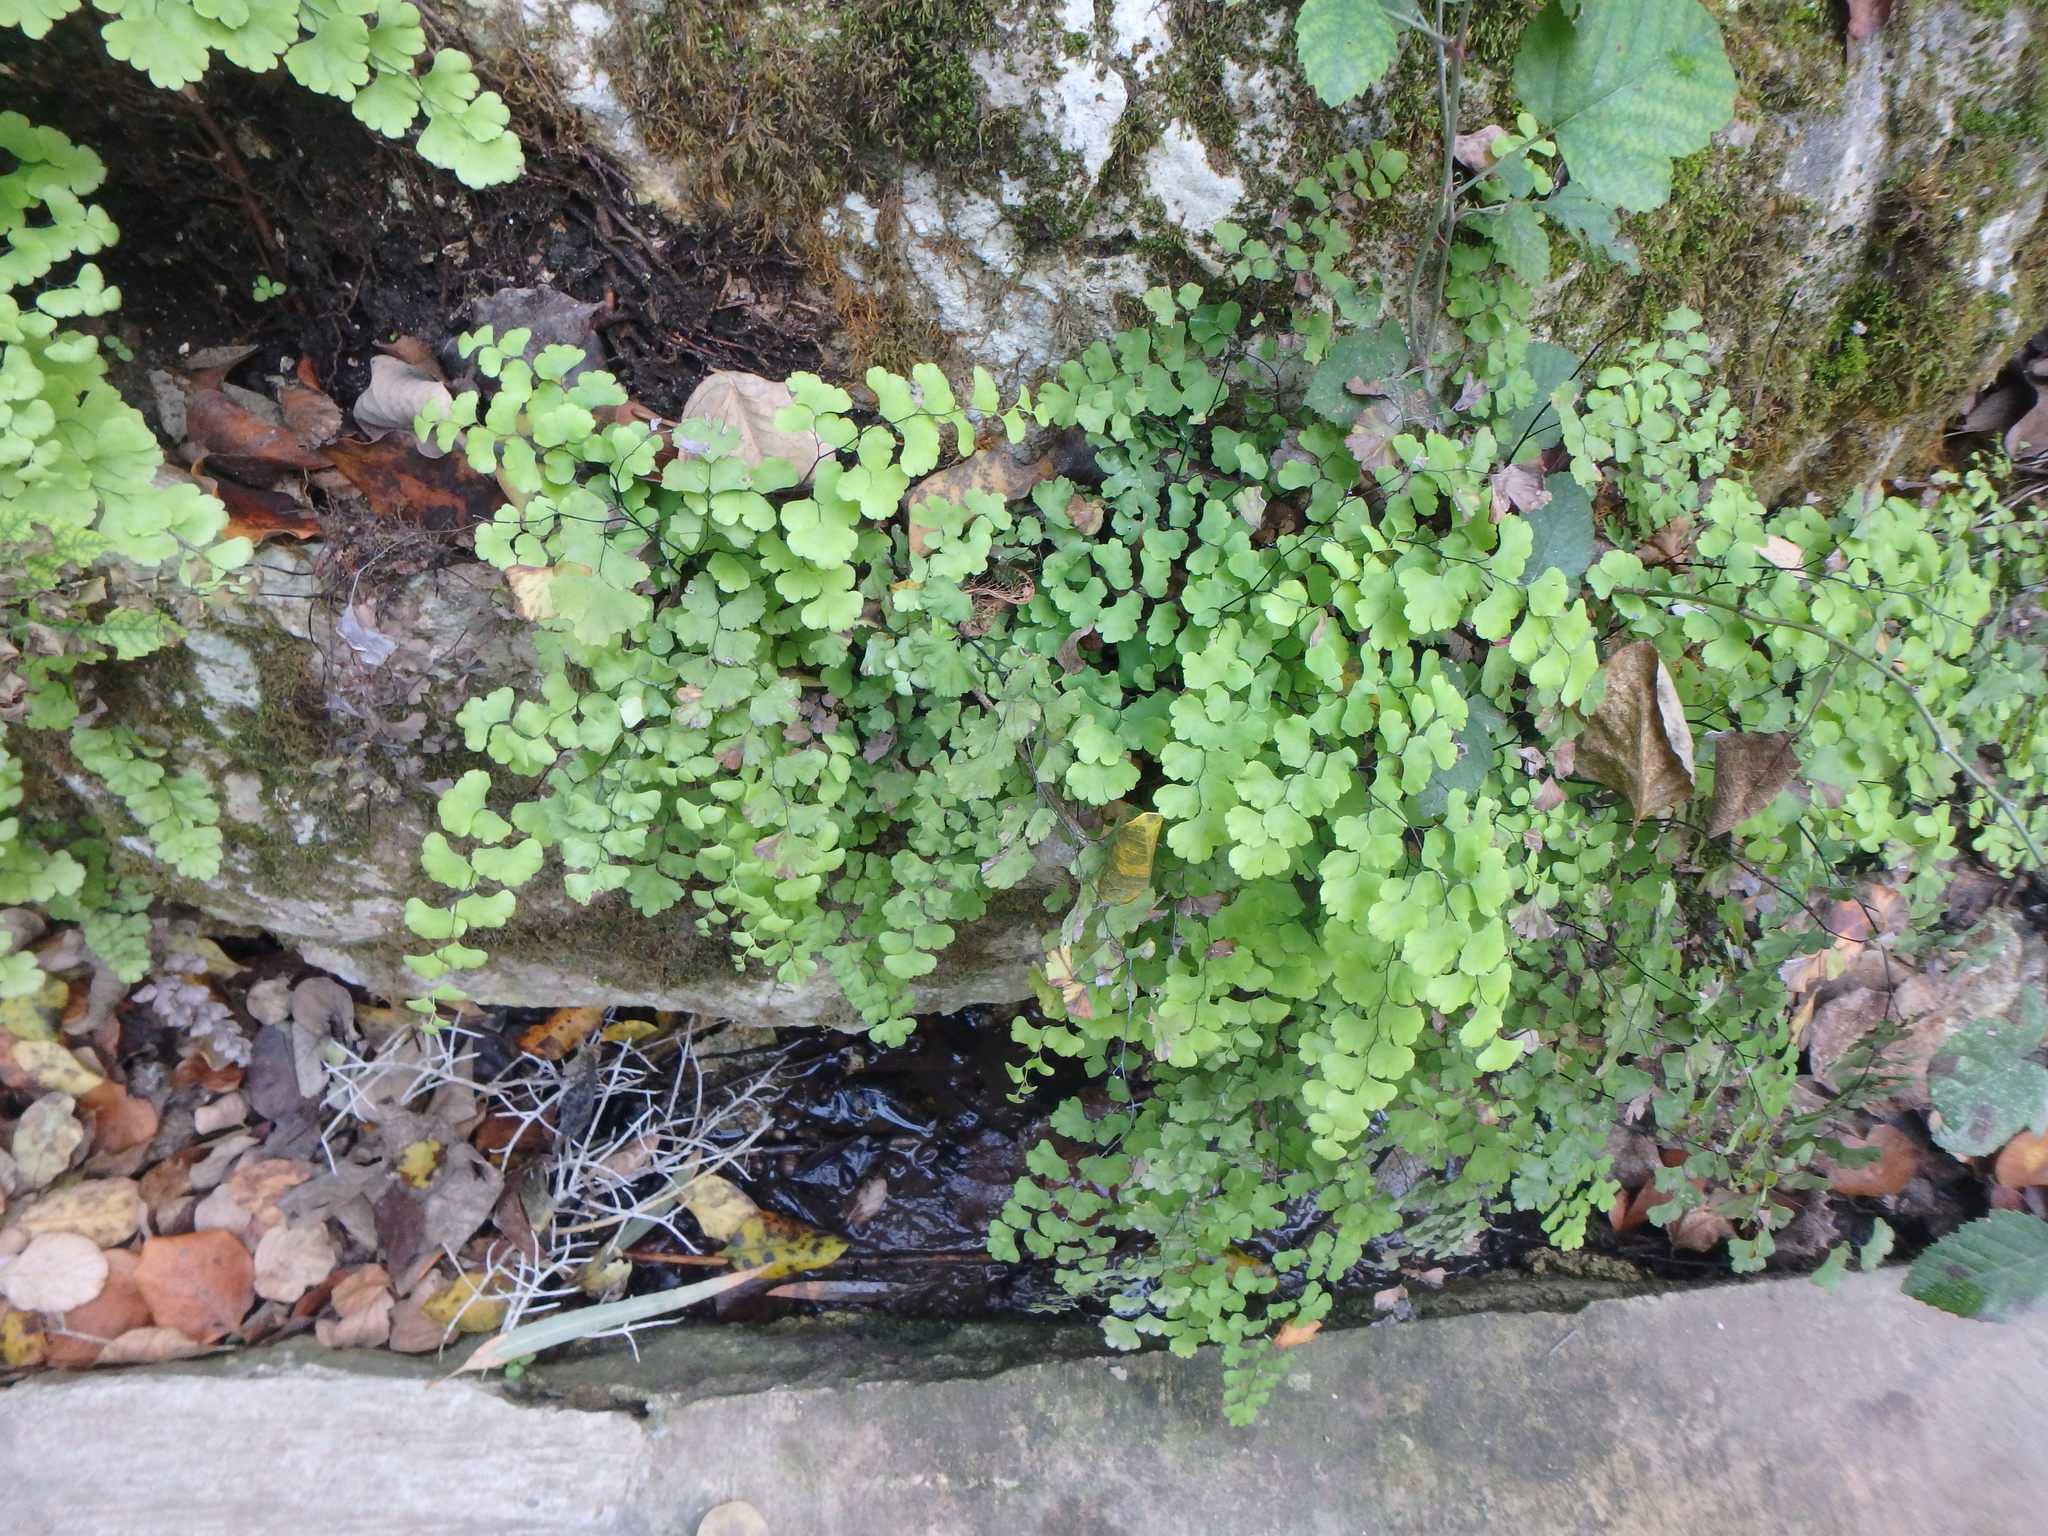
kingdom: Plantae
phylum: Tracheophyta
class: Polypodiopsida
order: Polypodiales
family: Pteridaceae
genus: Adiantum
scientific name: Adiantum capillus-veneris
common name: Maidenhair fern
